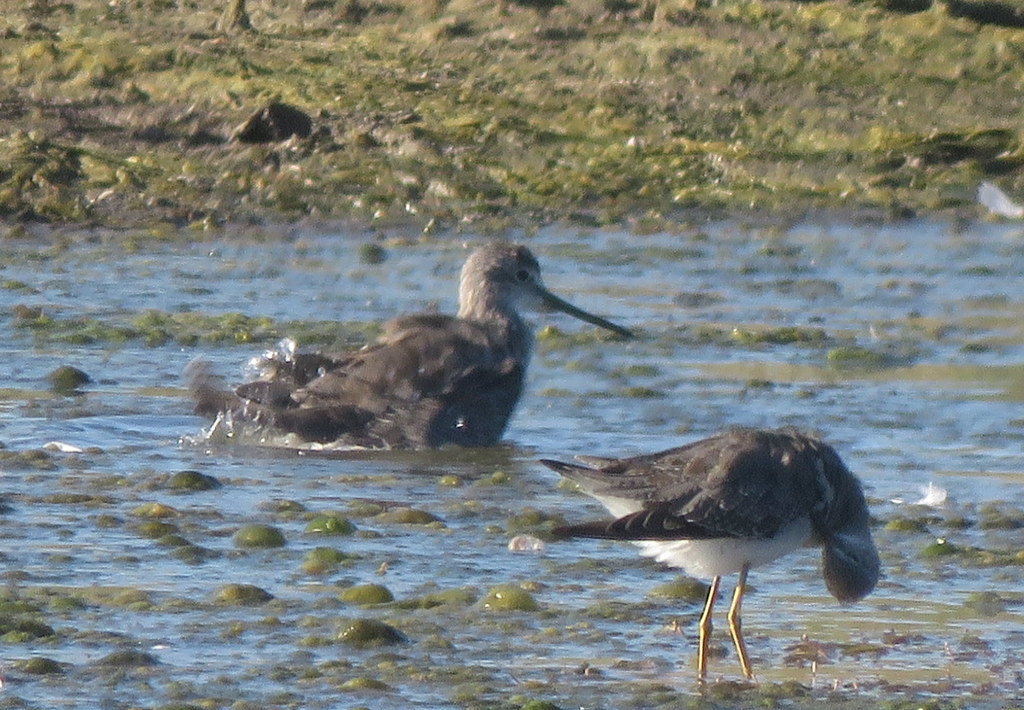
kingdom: Animalia
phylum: Chordata
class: Aves
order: Charadriiformes
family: Scolopacidae
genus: Tringa
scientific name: Tringa melanoleuca
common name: Greater yellowlegs
